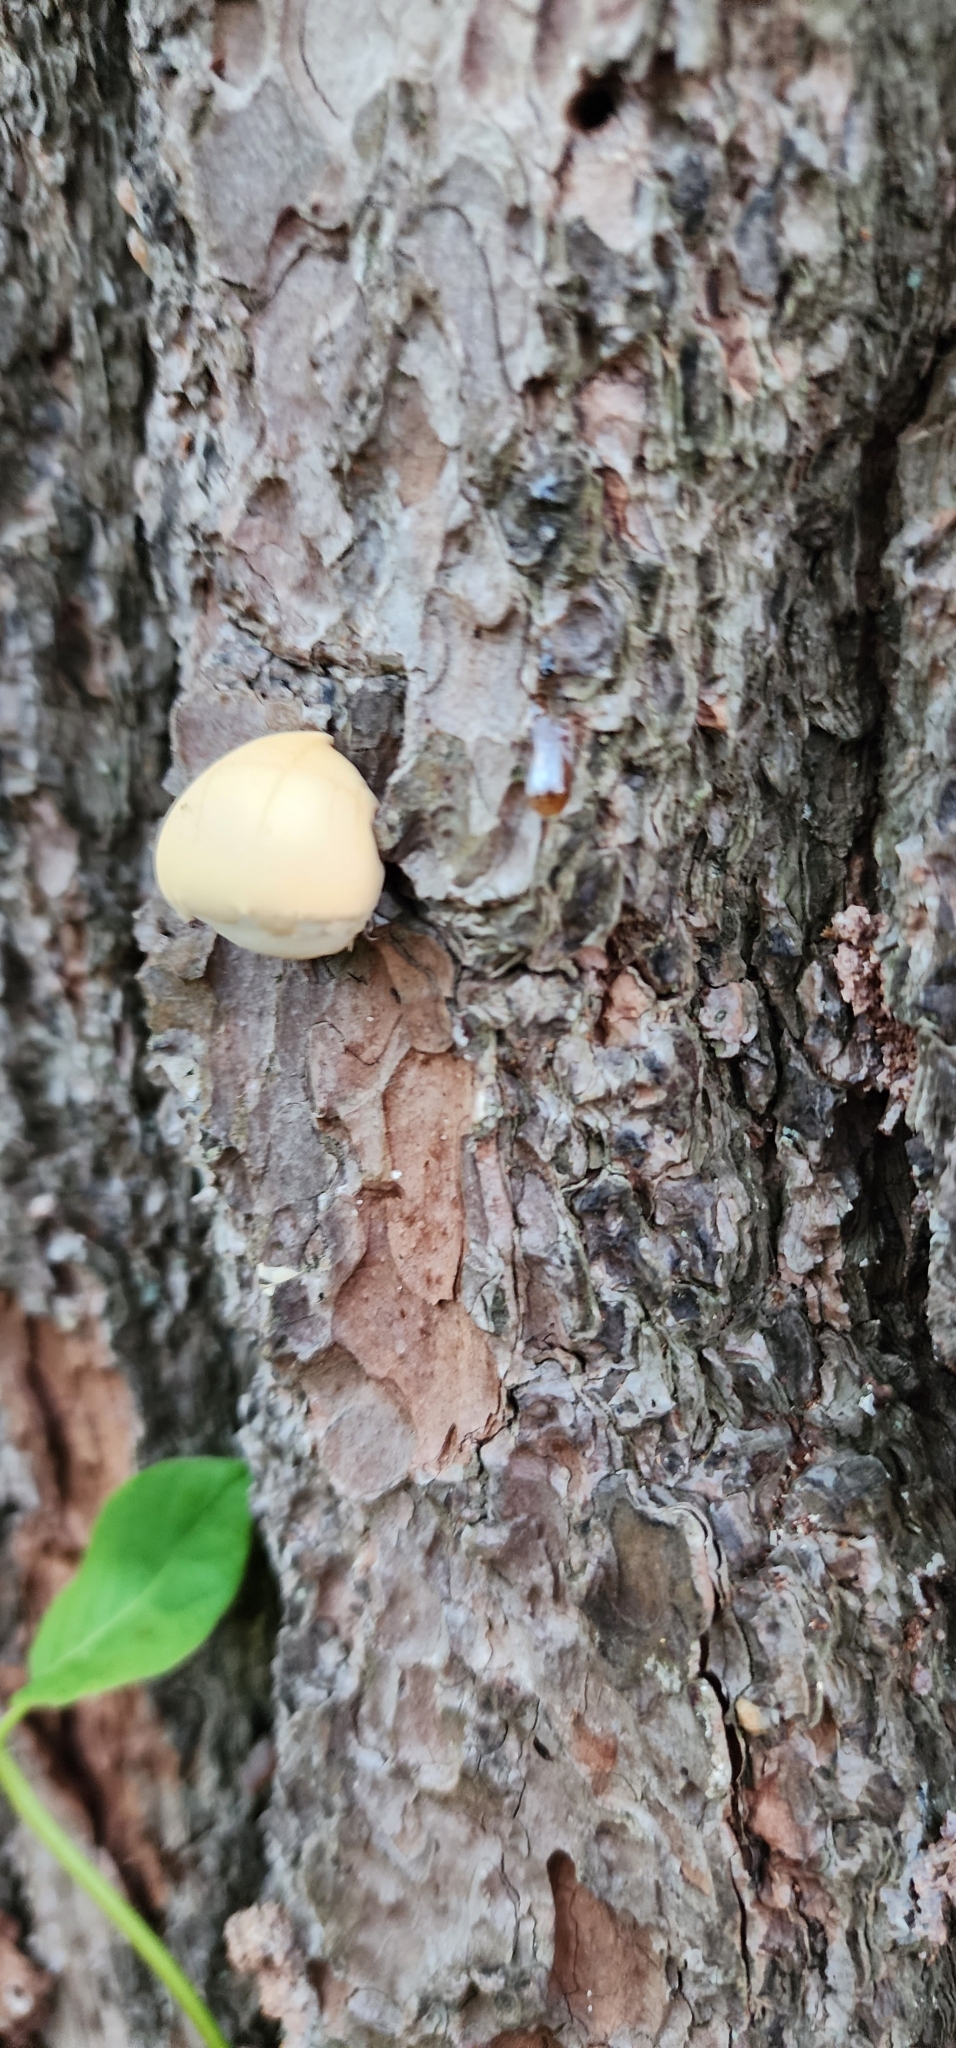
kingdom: Fungi
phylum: Basidiomycota
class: Agaricomycetes
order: Polyporales
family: Polyporaceae
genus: Cryptoporus
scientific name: Cryptoporus volvatus
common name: Veiled polypore
